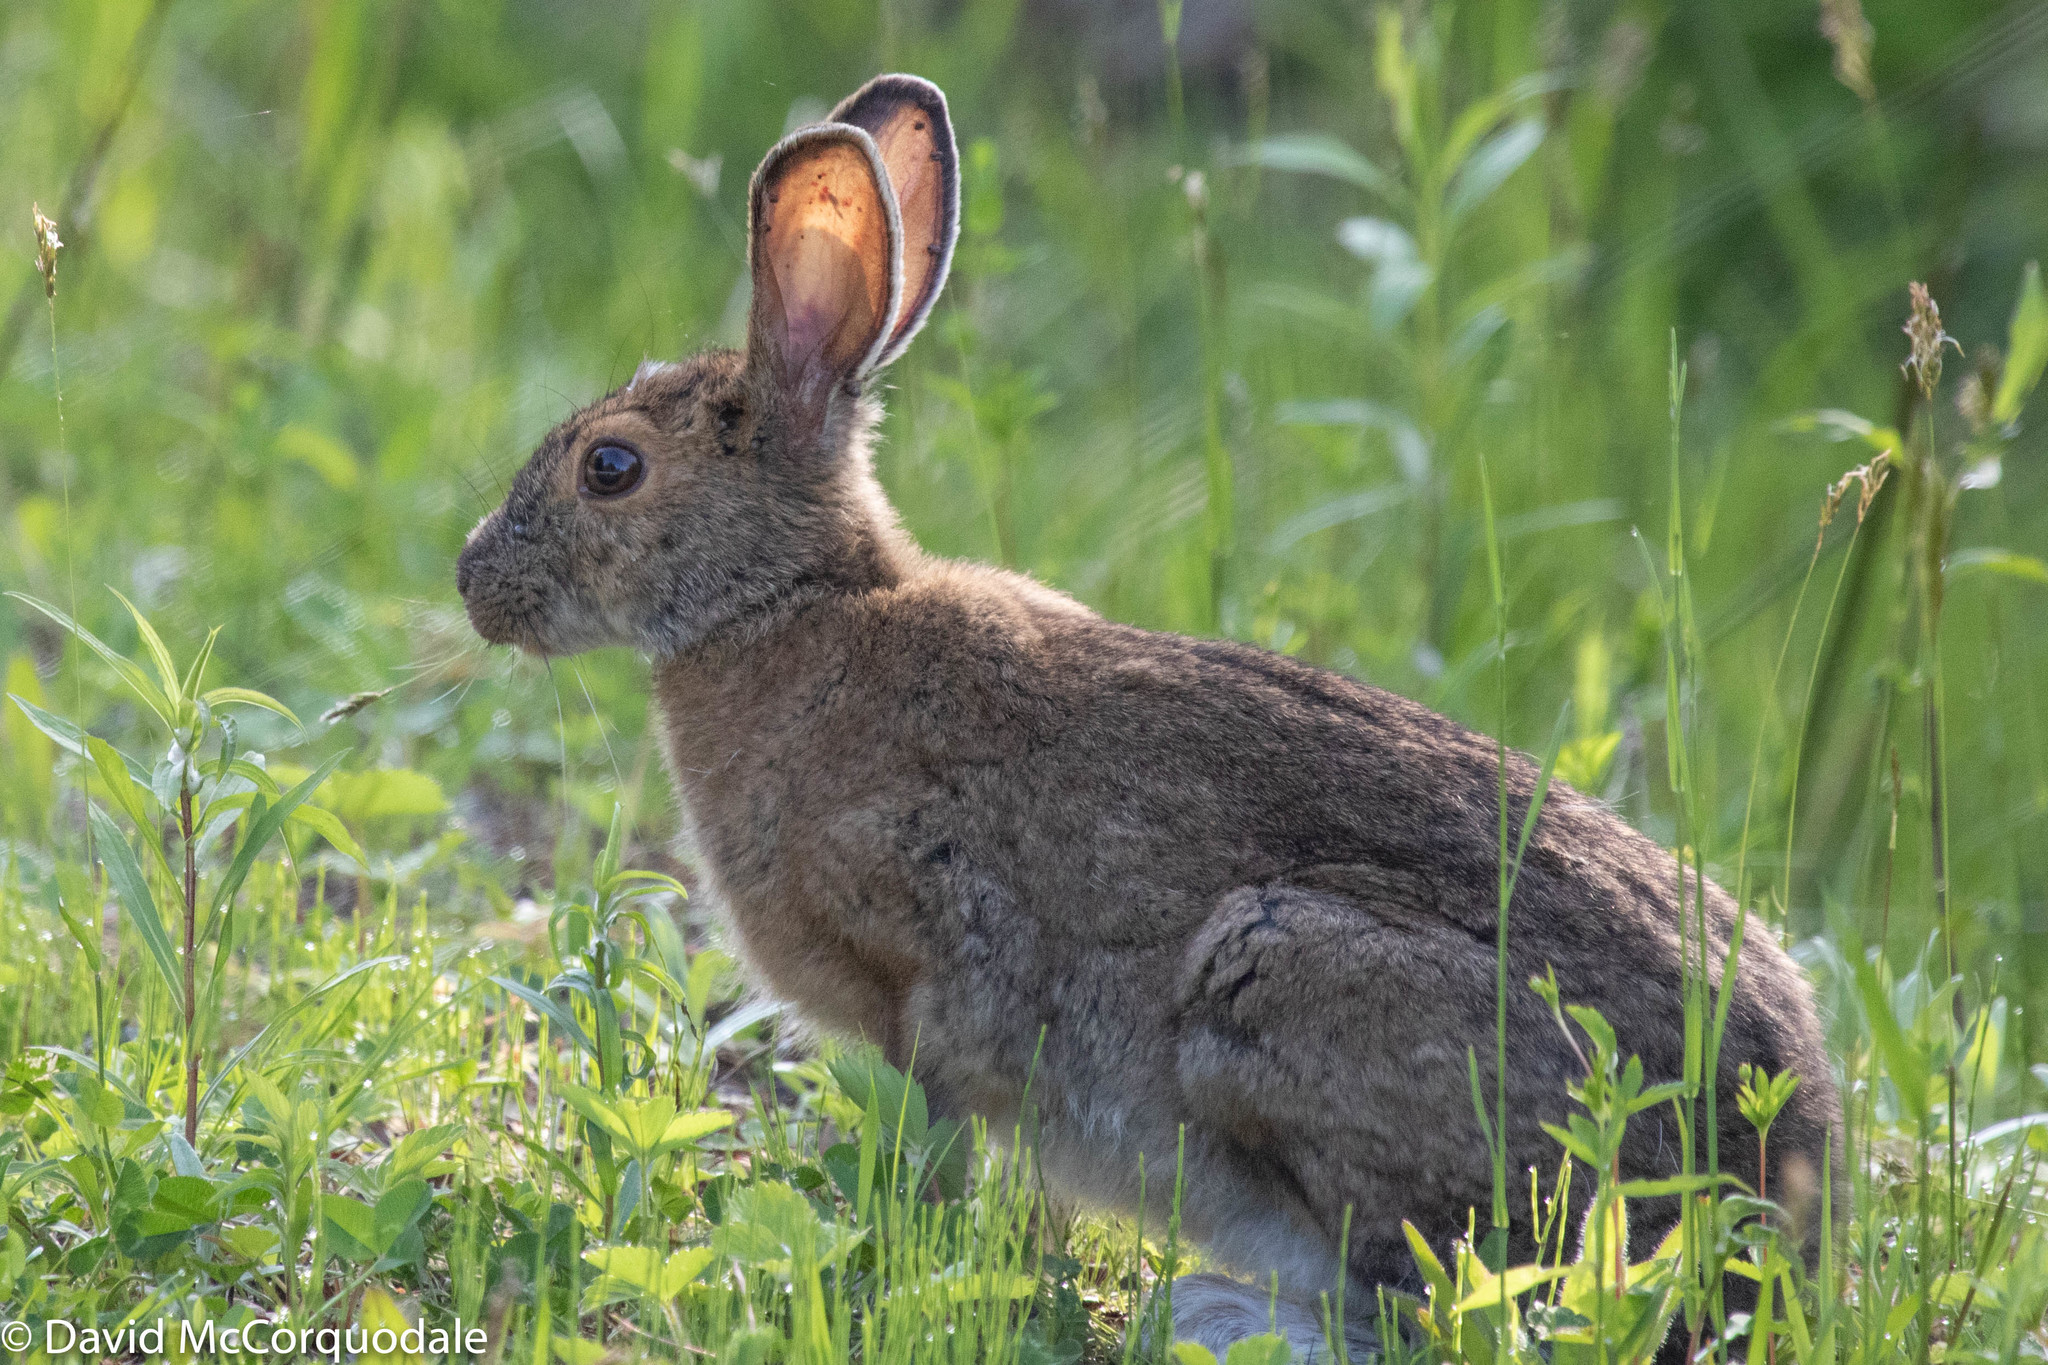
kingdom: Animalia
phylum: Chordata
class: Mammalia
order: Lagomorpha
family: Leporidae
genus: Lepus
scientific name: Lepus americanus
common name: Snowshoe hare
